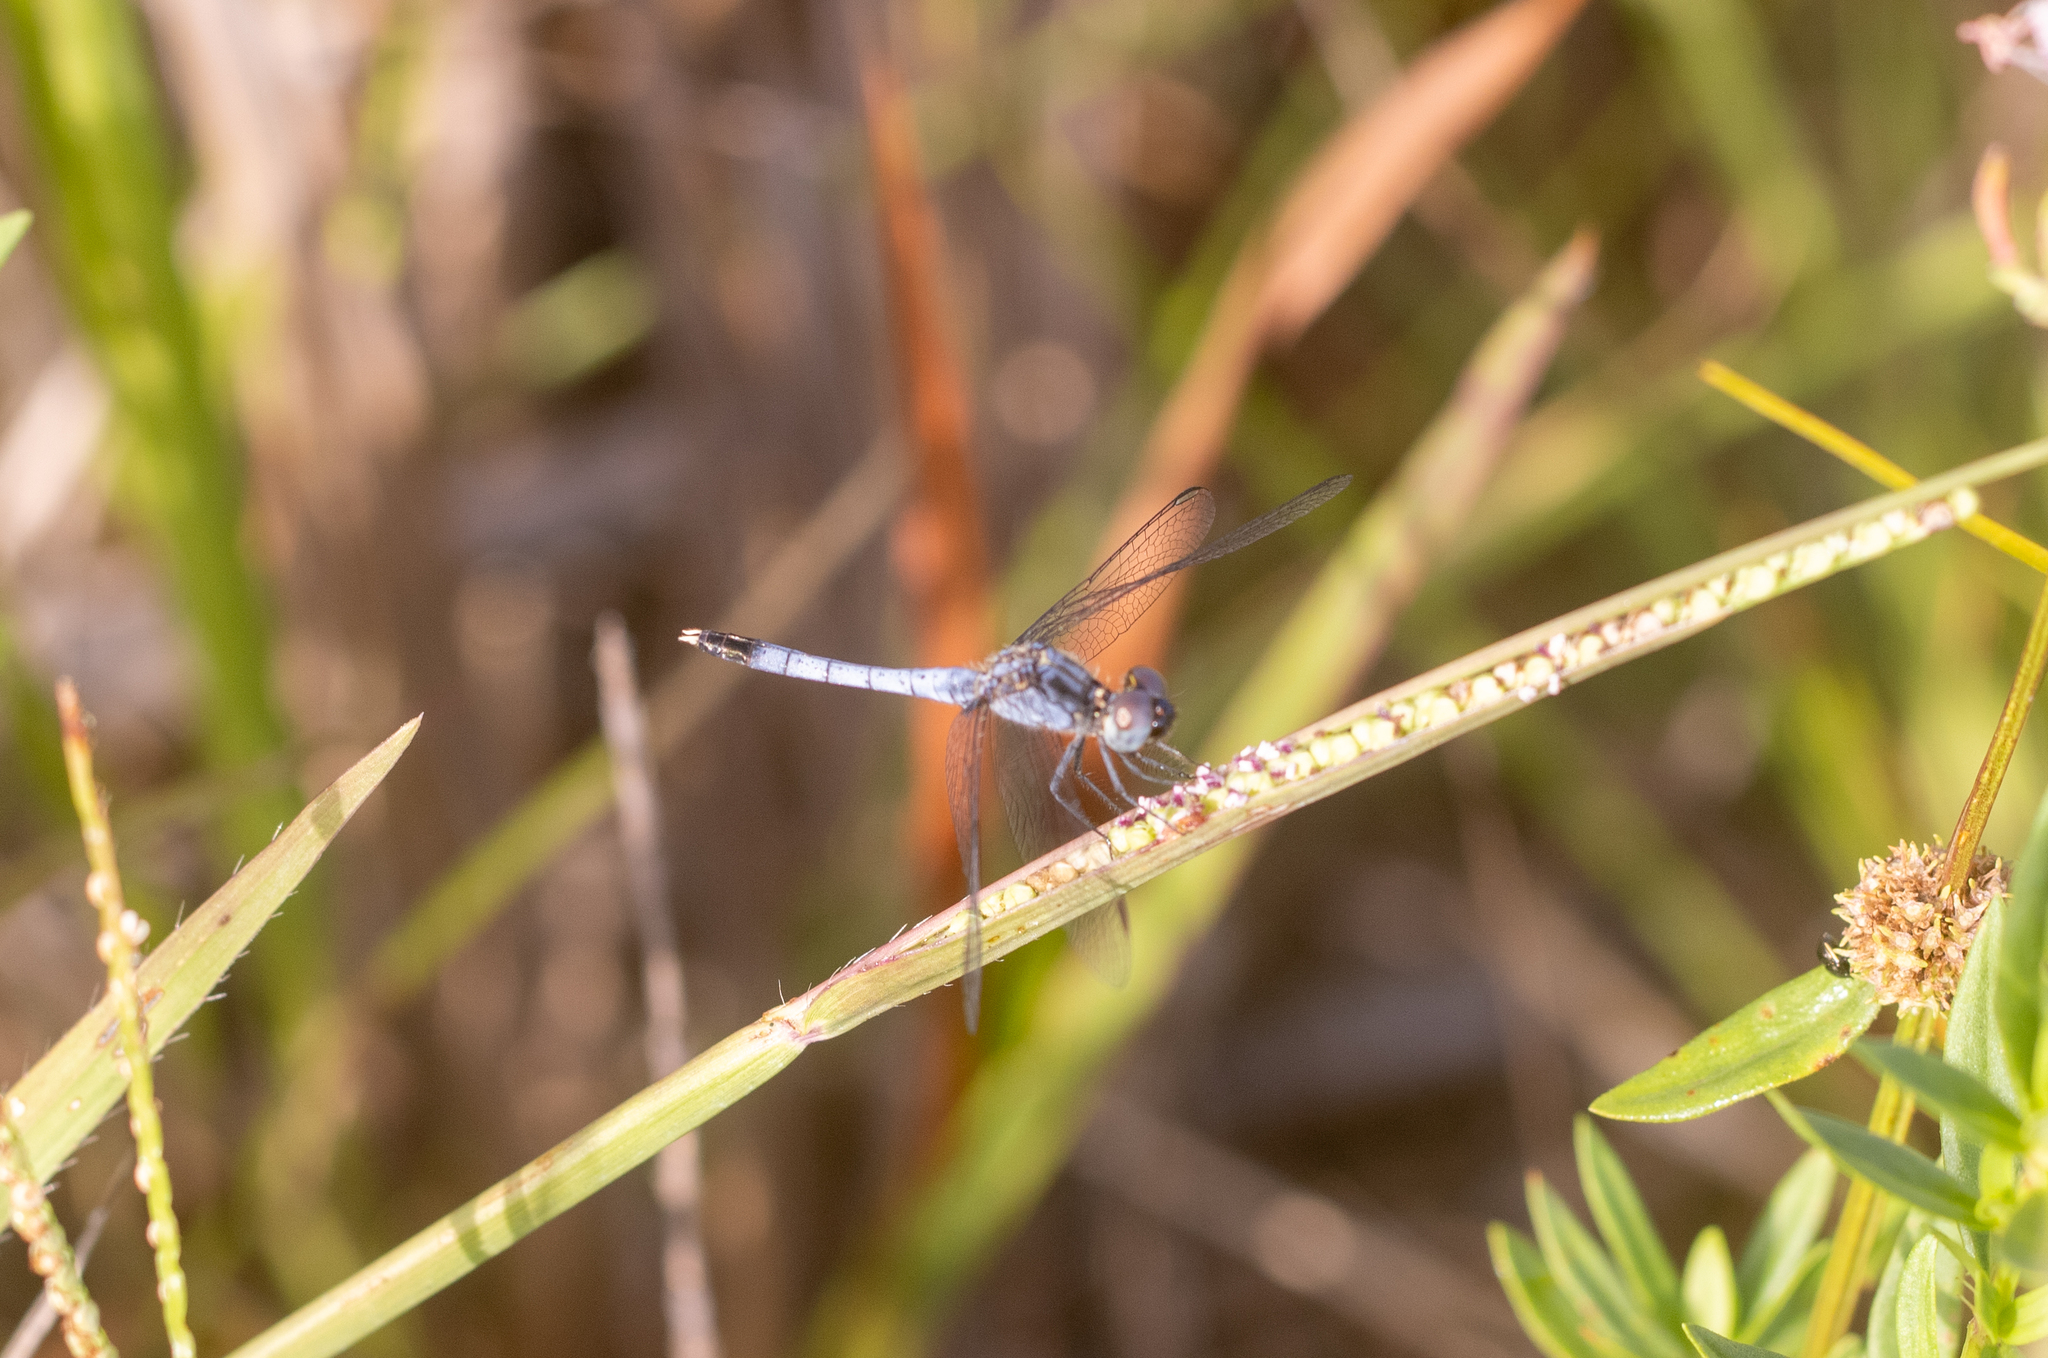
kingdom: Animalia
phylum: Arthropoda
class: Insecta
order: Odonata
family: Libellulidae
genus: Erythrodiplax
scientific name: Erythrodiplax minuscula
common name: Little blue dragonlet
